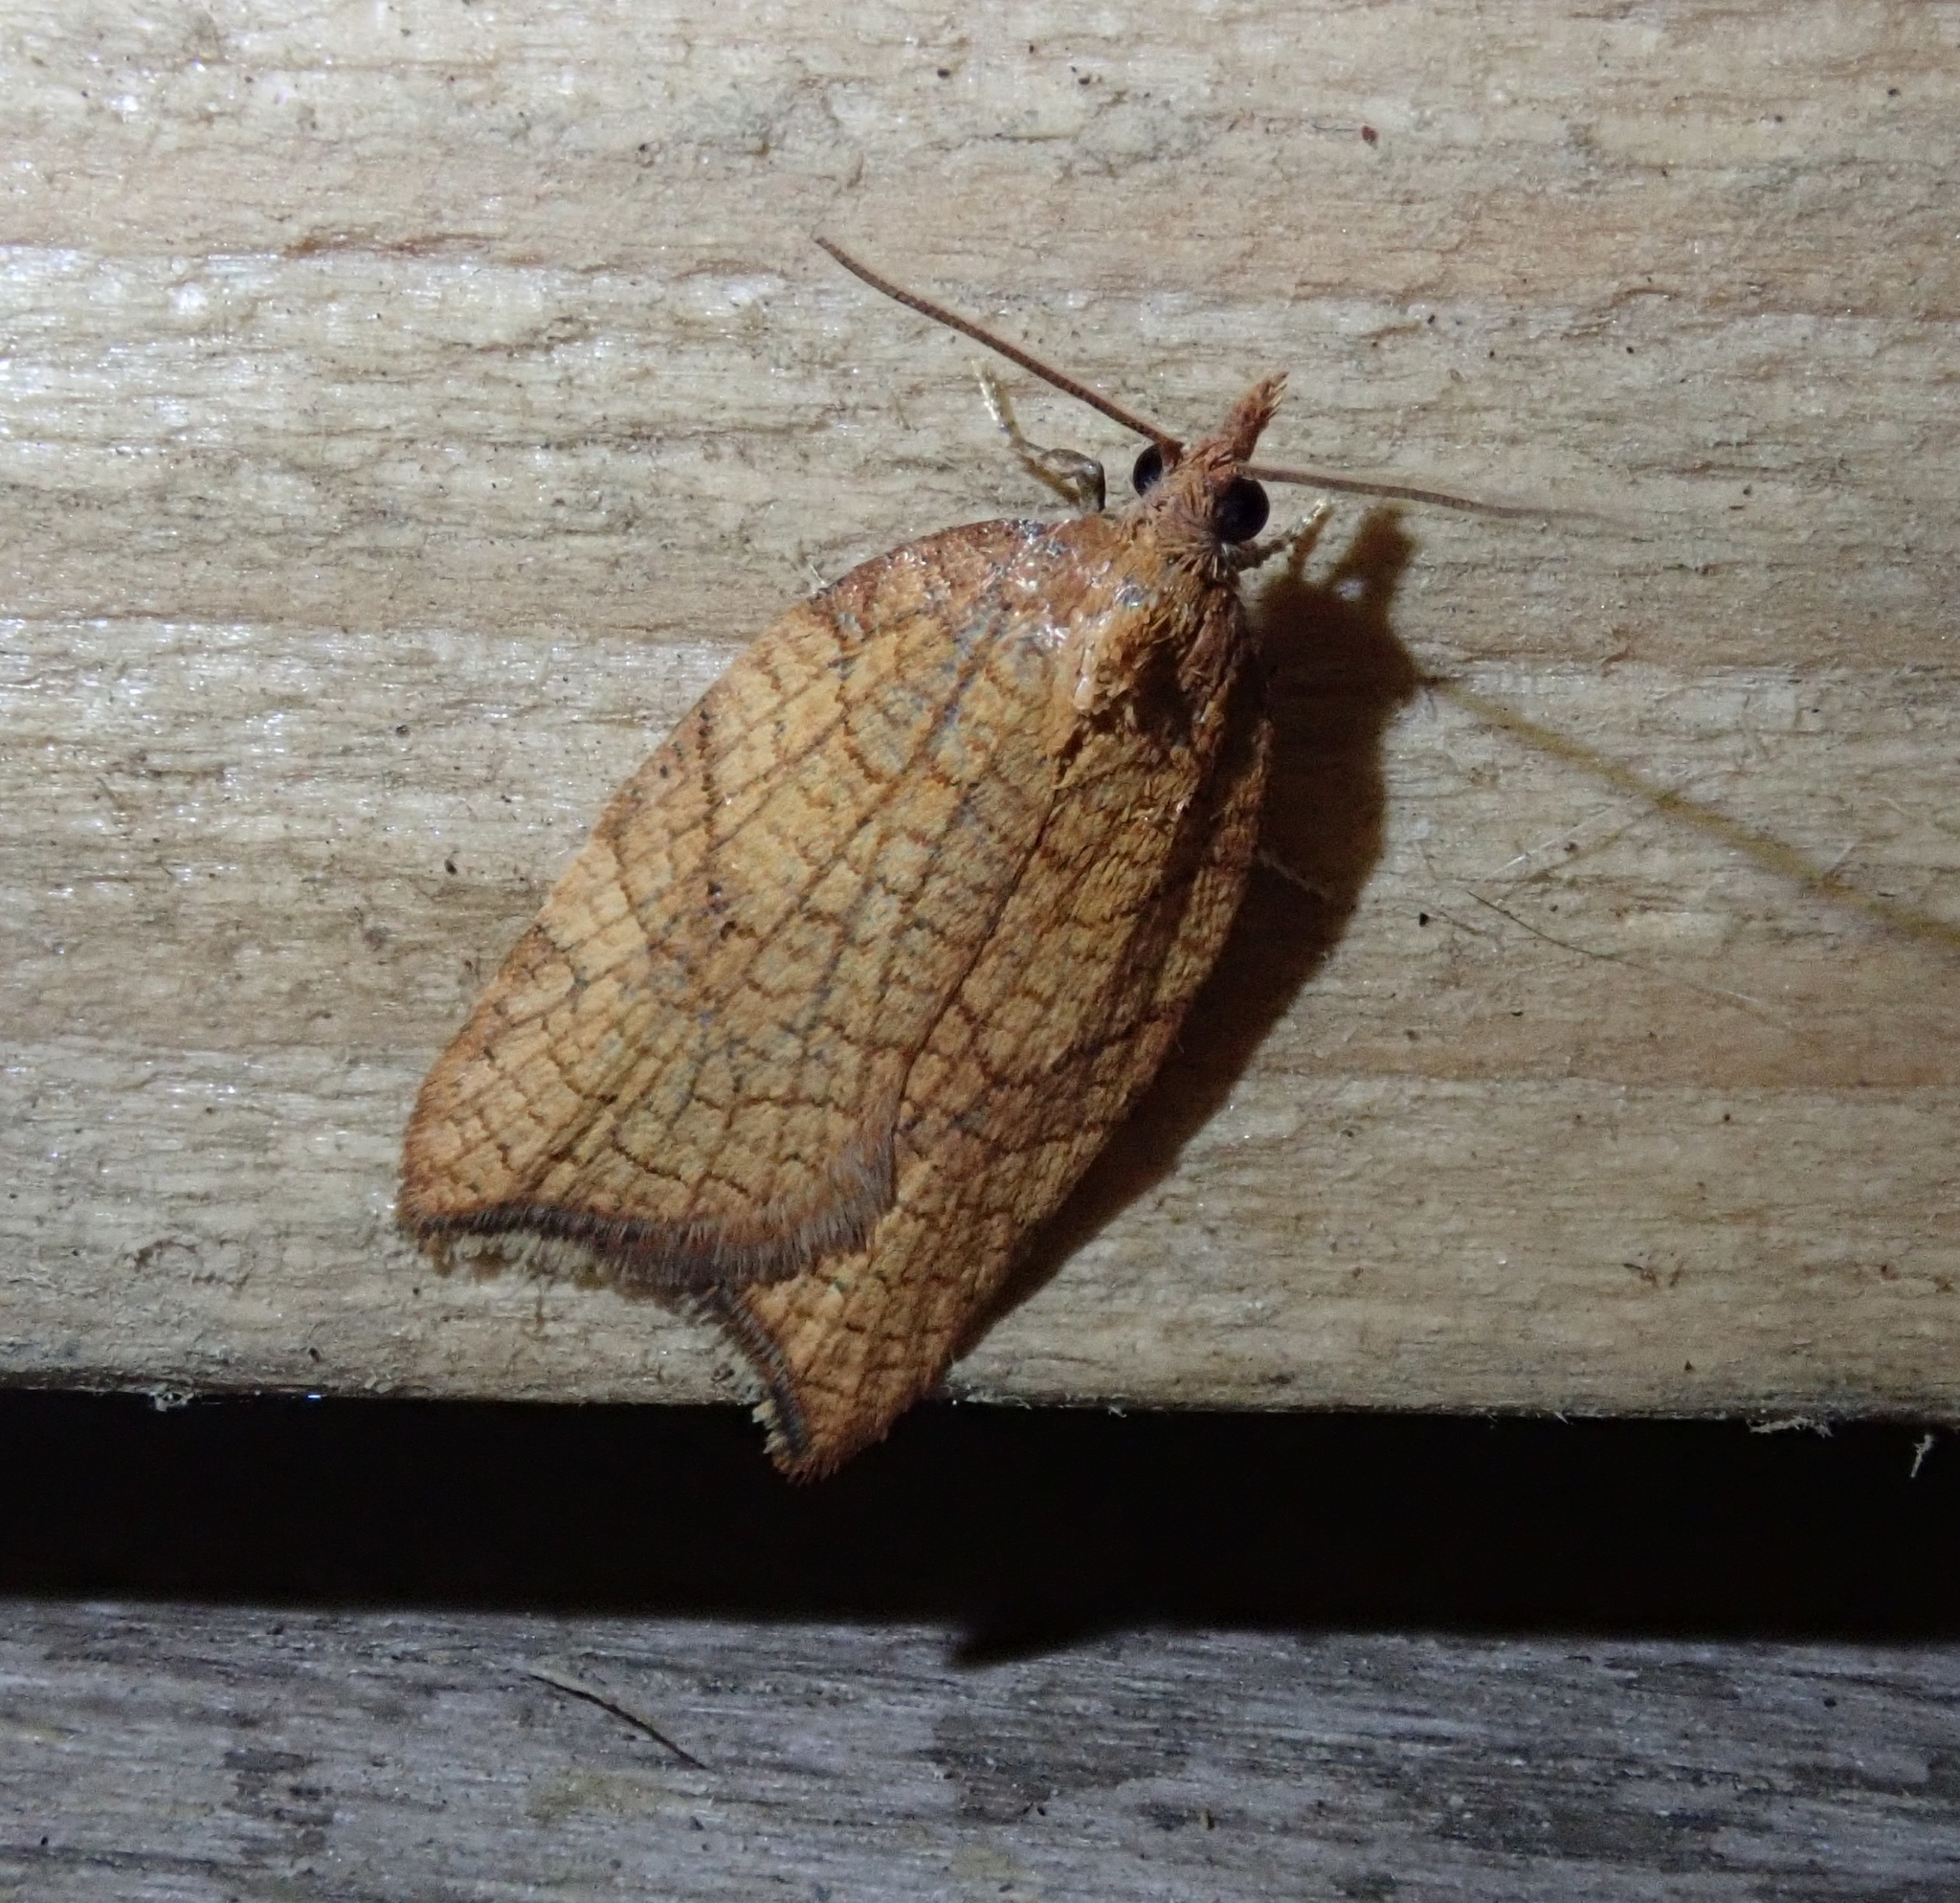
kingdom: Animalia
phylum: Arthropoda
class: Insecta
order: Lepidoptera
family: Tortricidae
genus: Acleris
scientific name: Acleris rhombana
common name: Tortricid moth
